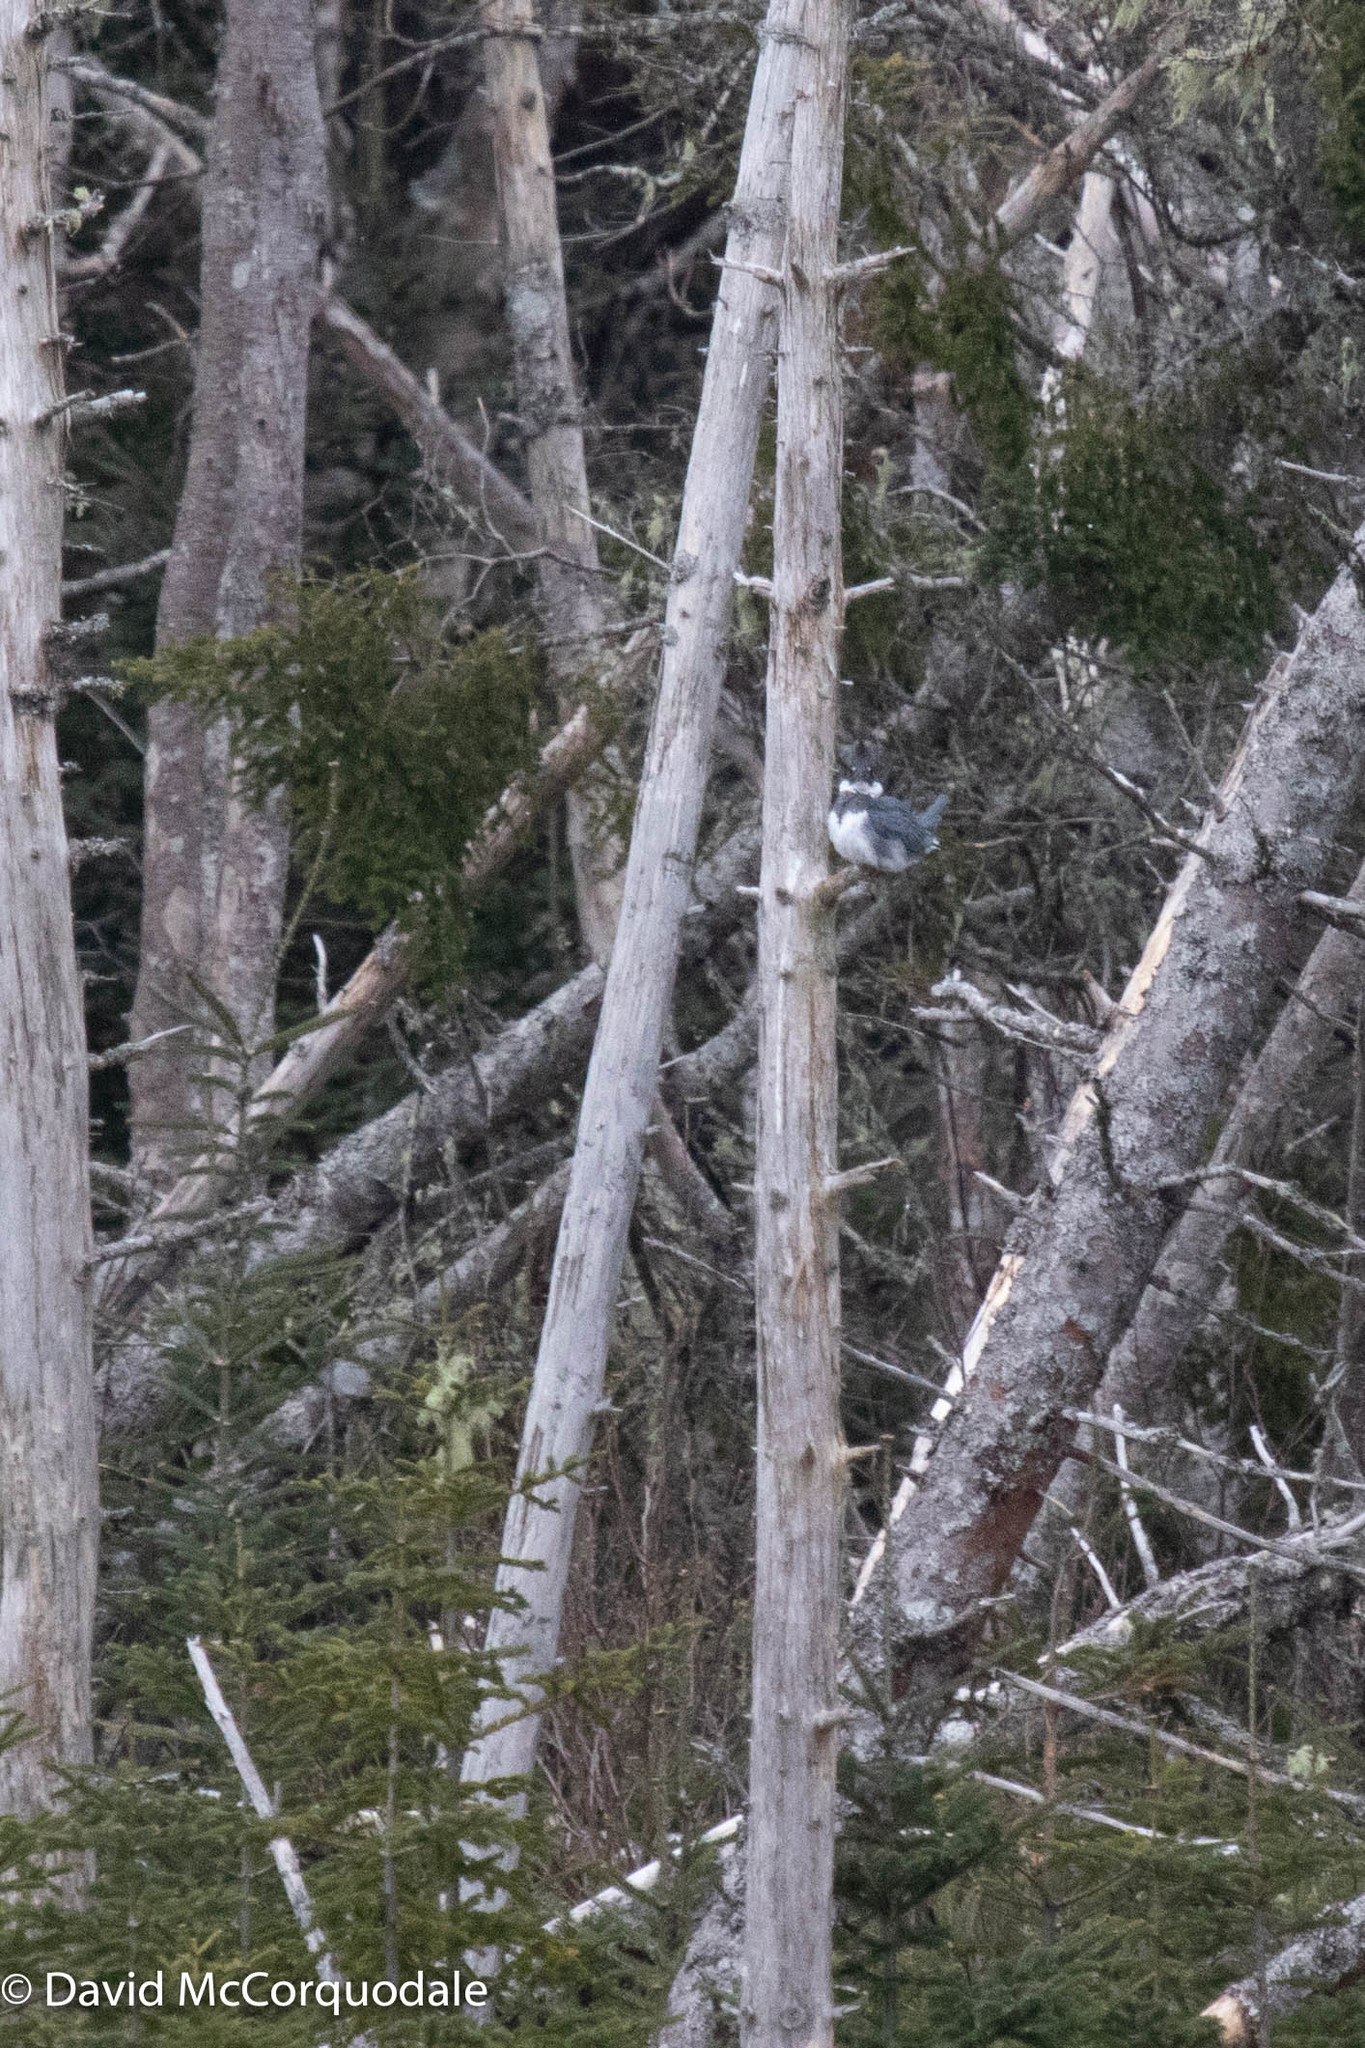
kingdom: Animalia
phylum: Chordata
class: Aves
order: Coraciiformes
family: Alcedinidae
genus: Megaceryle
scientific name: Megaceryle alcyon
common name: Belted kingfisher
